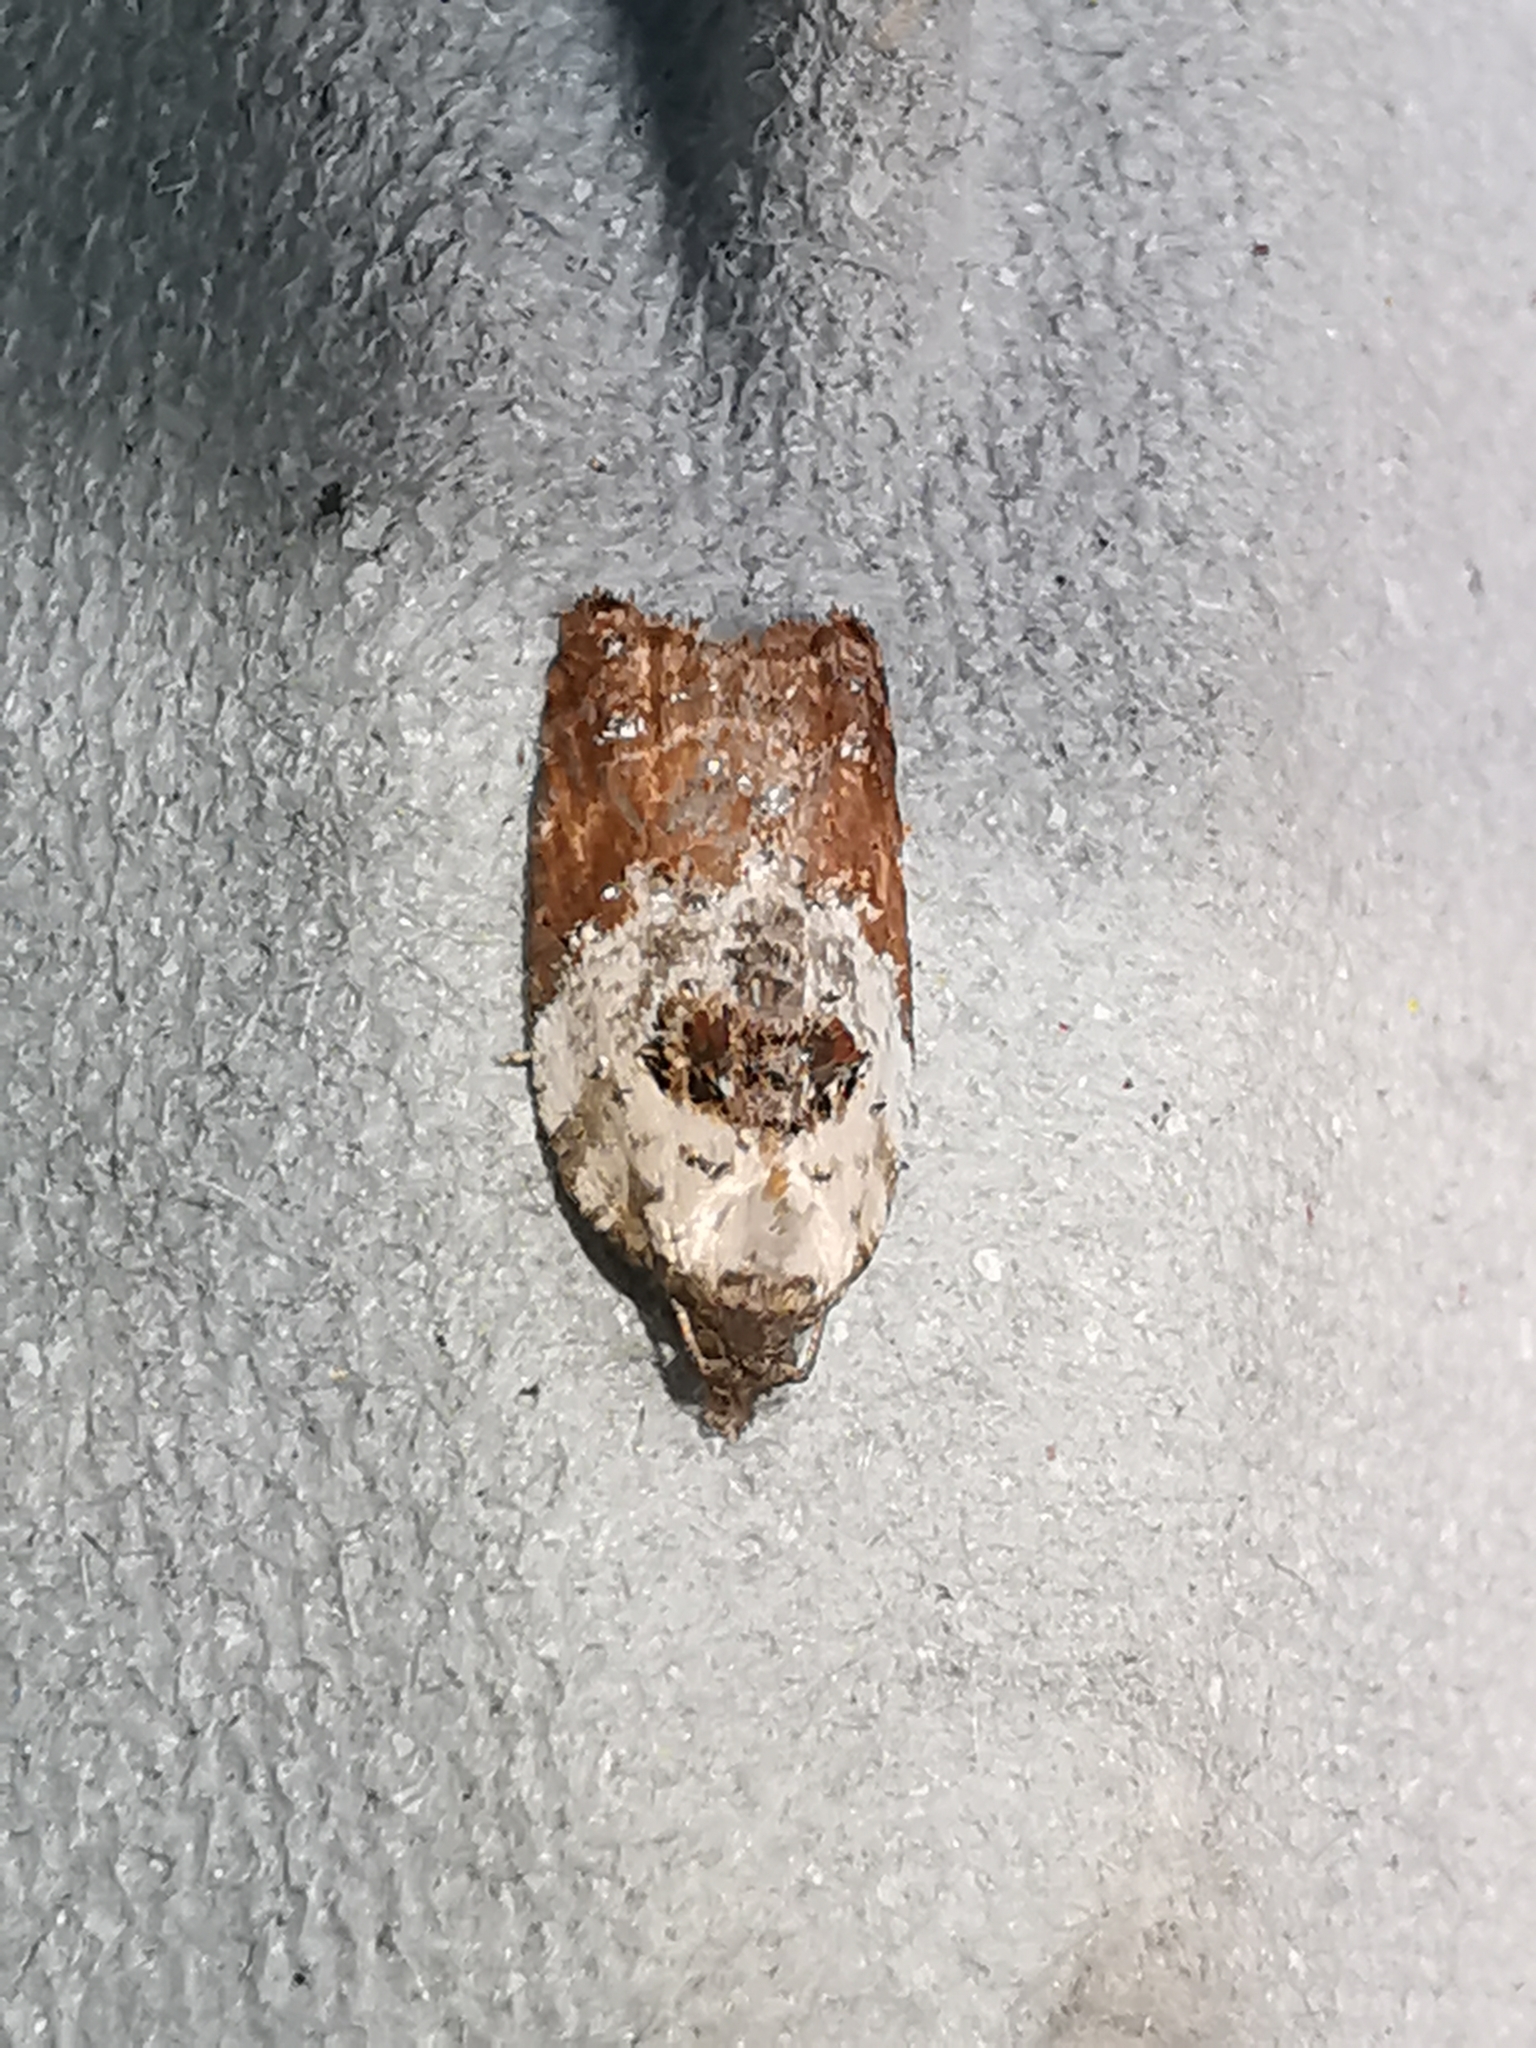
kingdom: Animalia
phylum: Arthropoda
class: Insecta
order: Lepidoptera
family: Tortricidae
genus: Acleris
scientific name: Acleris variegana
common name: Garden rose tortrix
